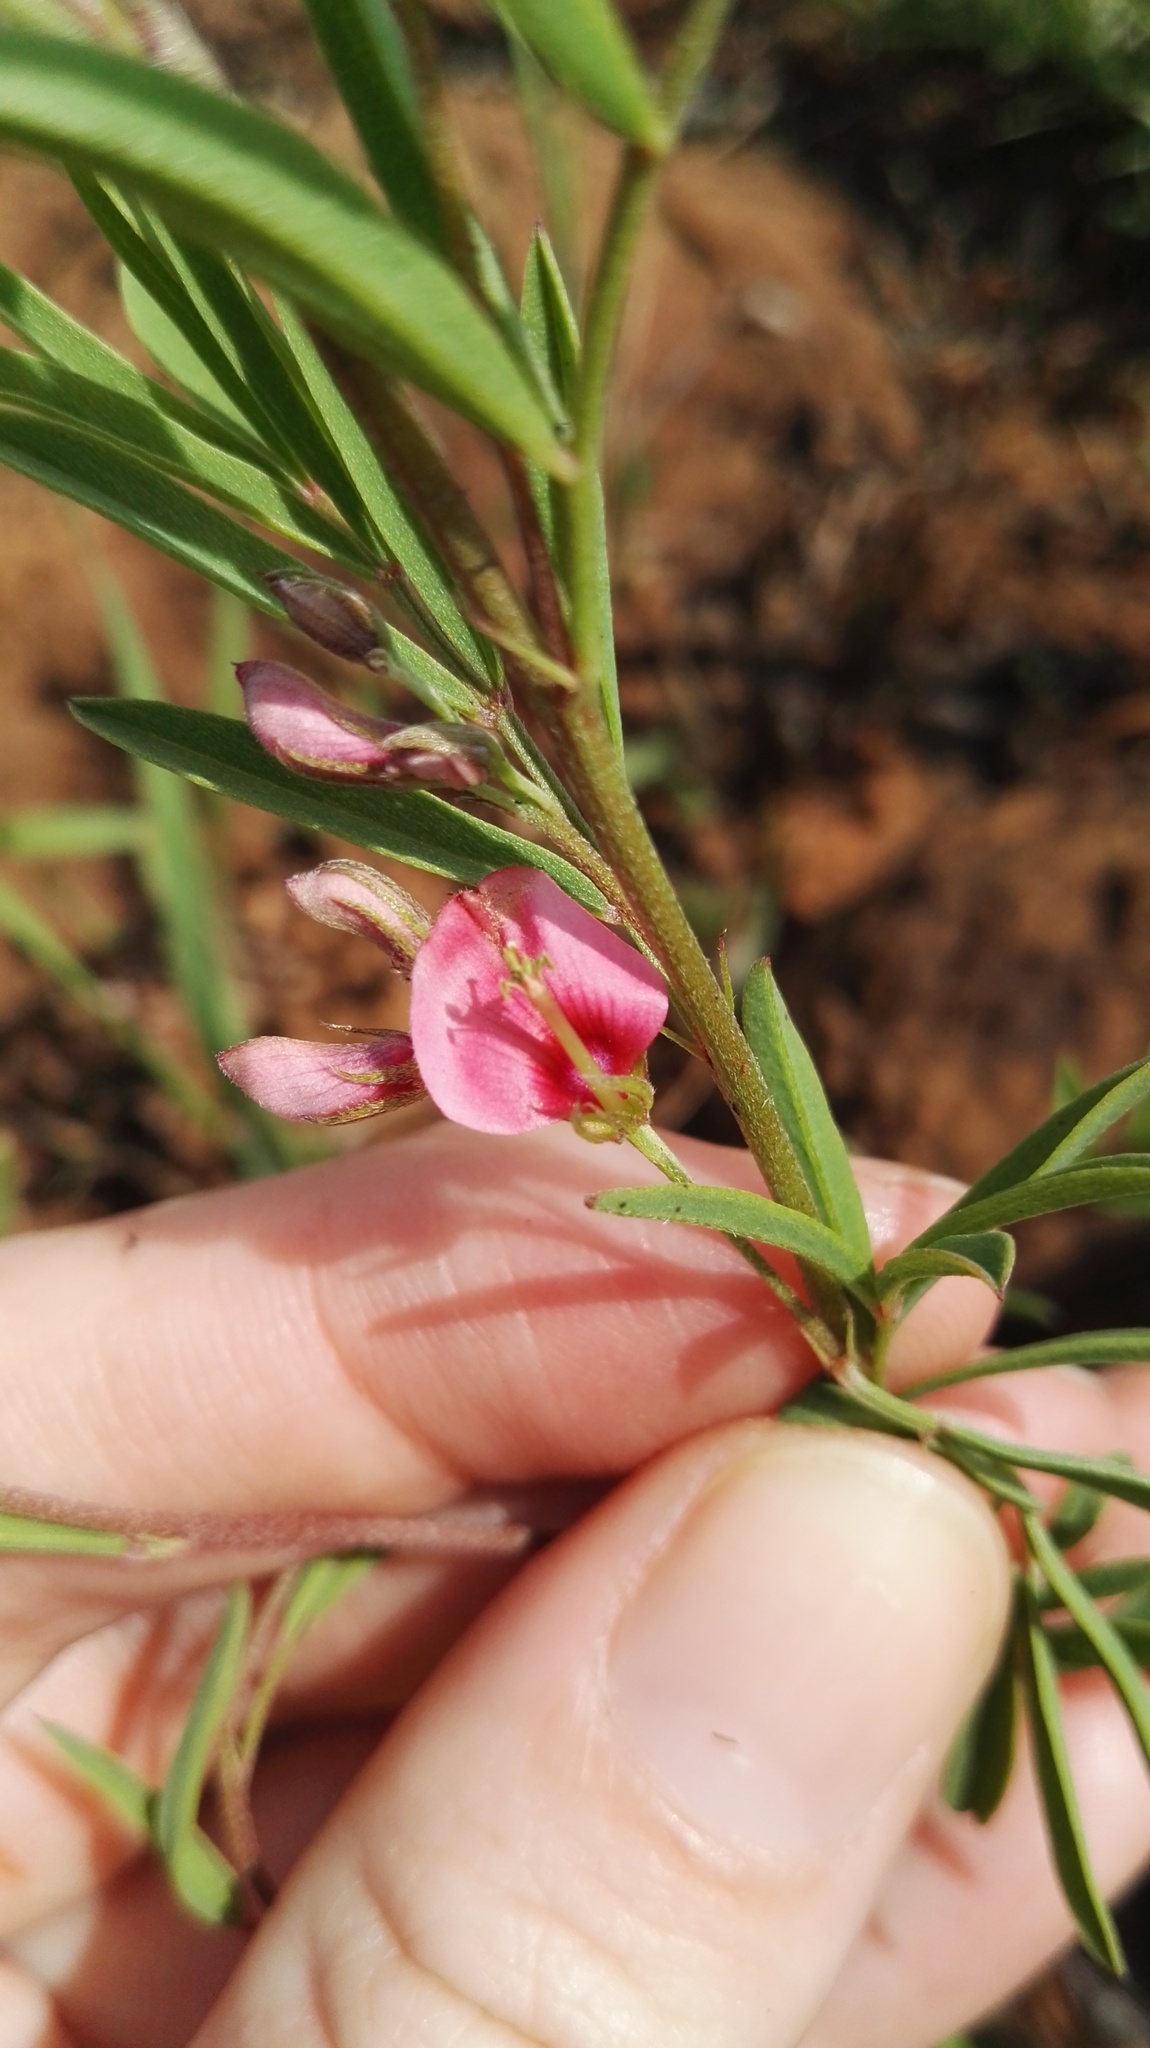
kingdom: Plantae
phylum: Tracheophyta
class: Magnoliopsida
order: Fabales
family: Fabaceae
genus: Indigofera
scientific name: Indigofera hilaris
